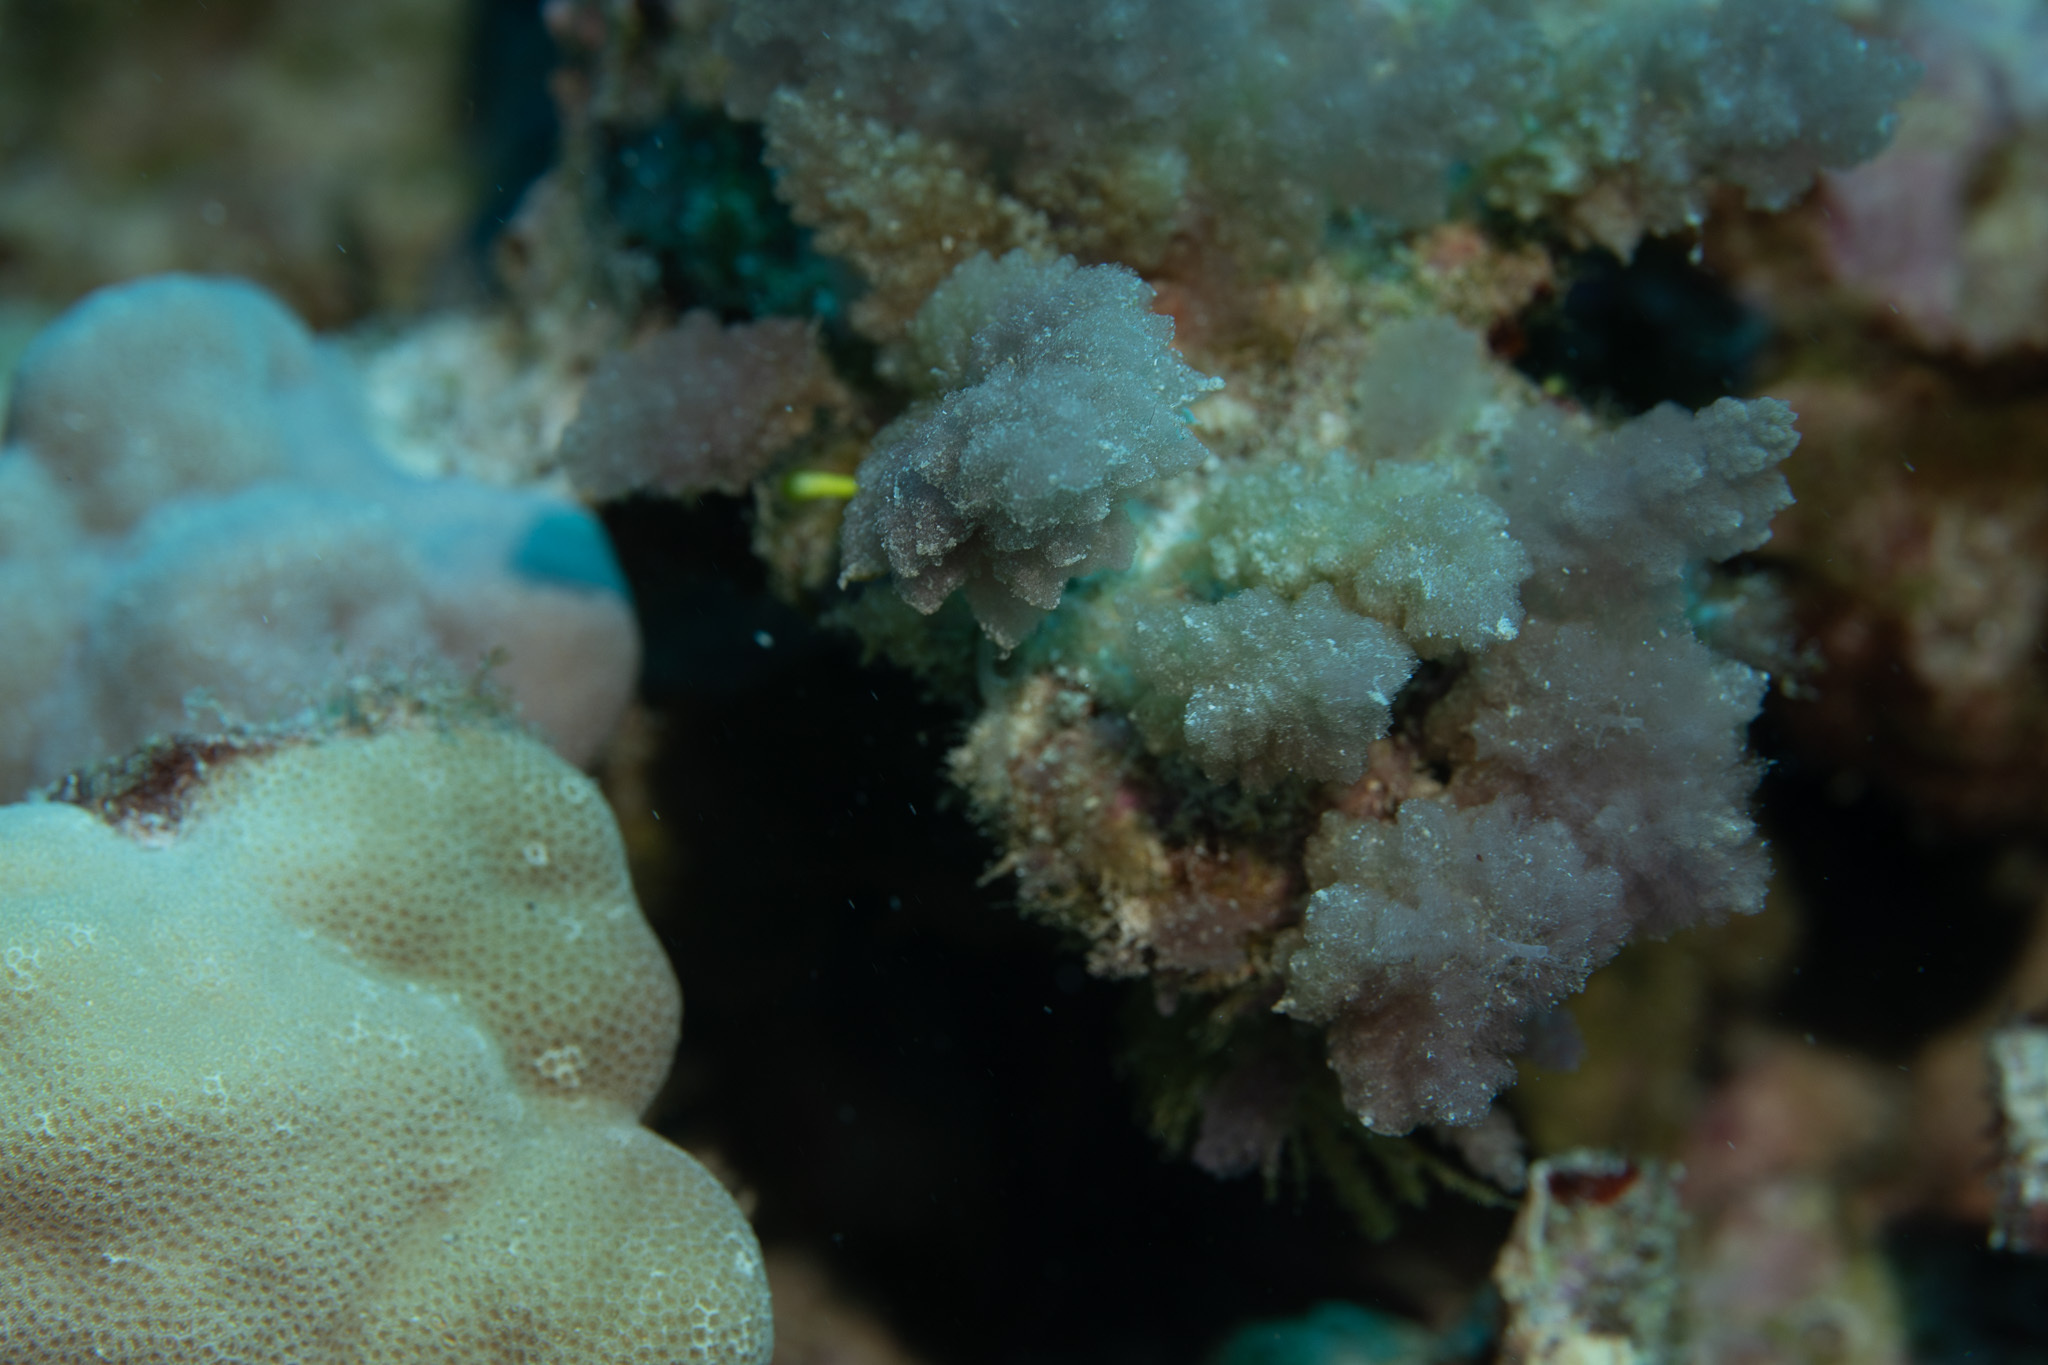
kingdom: Plantae
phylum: Rhodophyta
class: Florideophyceae
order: Bonnemaisoniales
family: Bonnemaisoniaceae
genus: Asparagopsis
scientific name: Asparagopsis taxiformis
